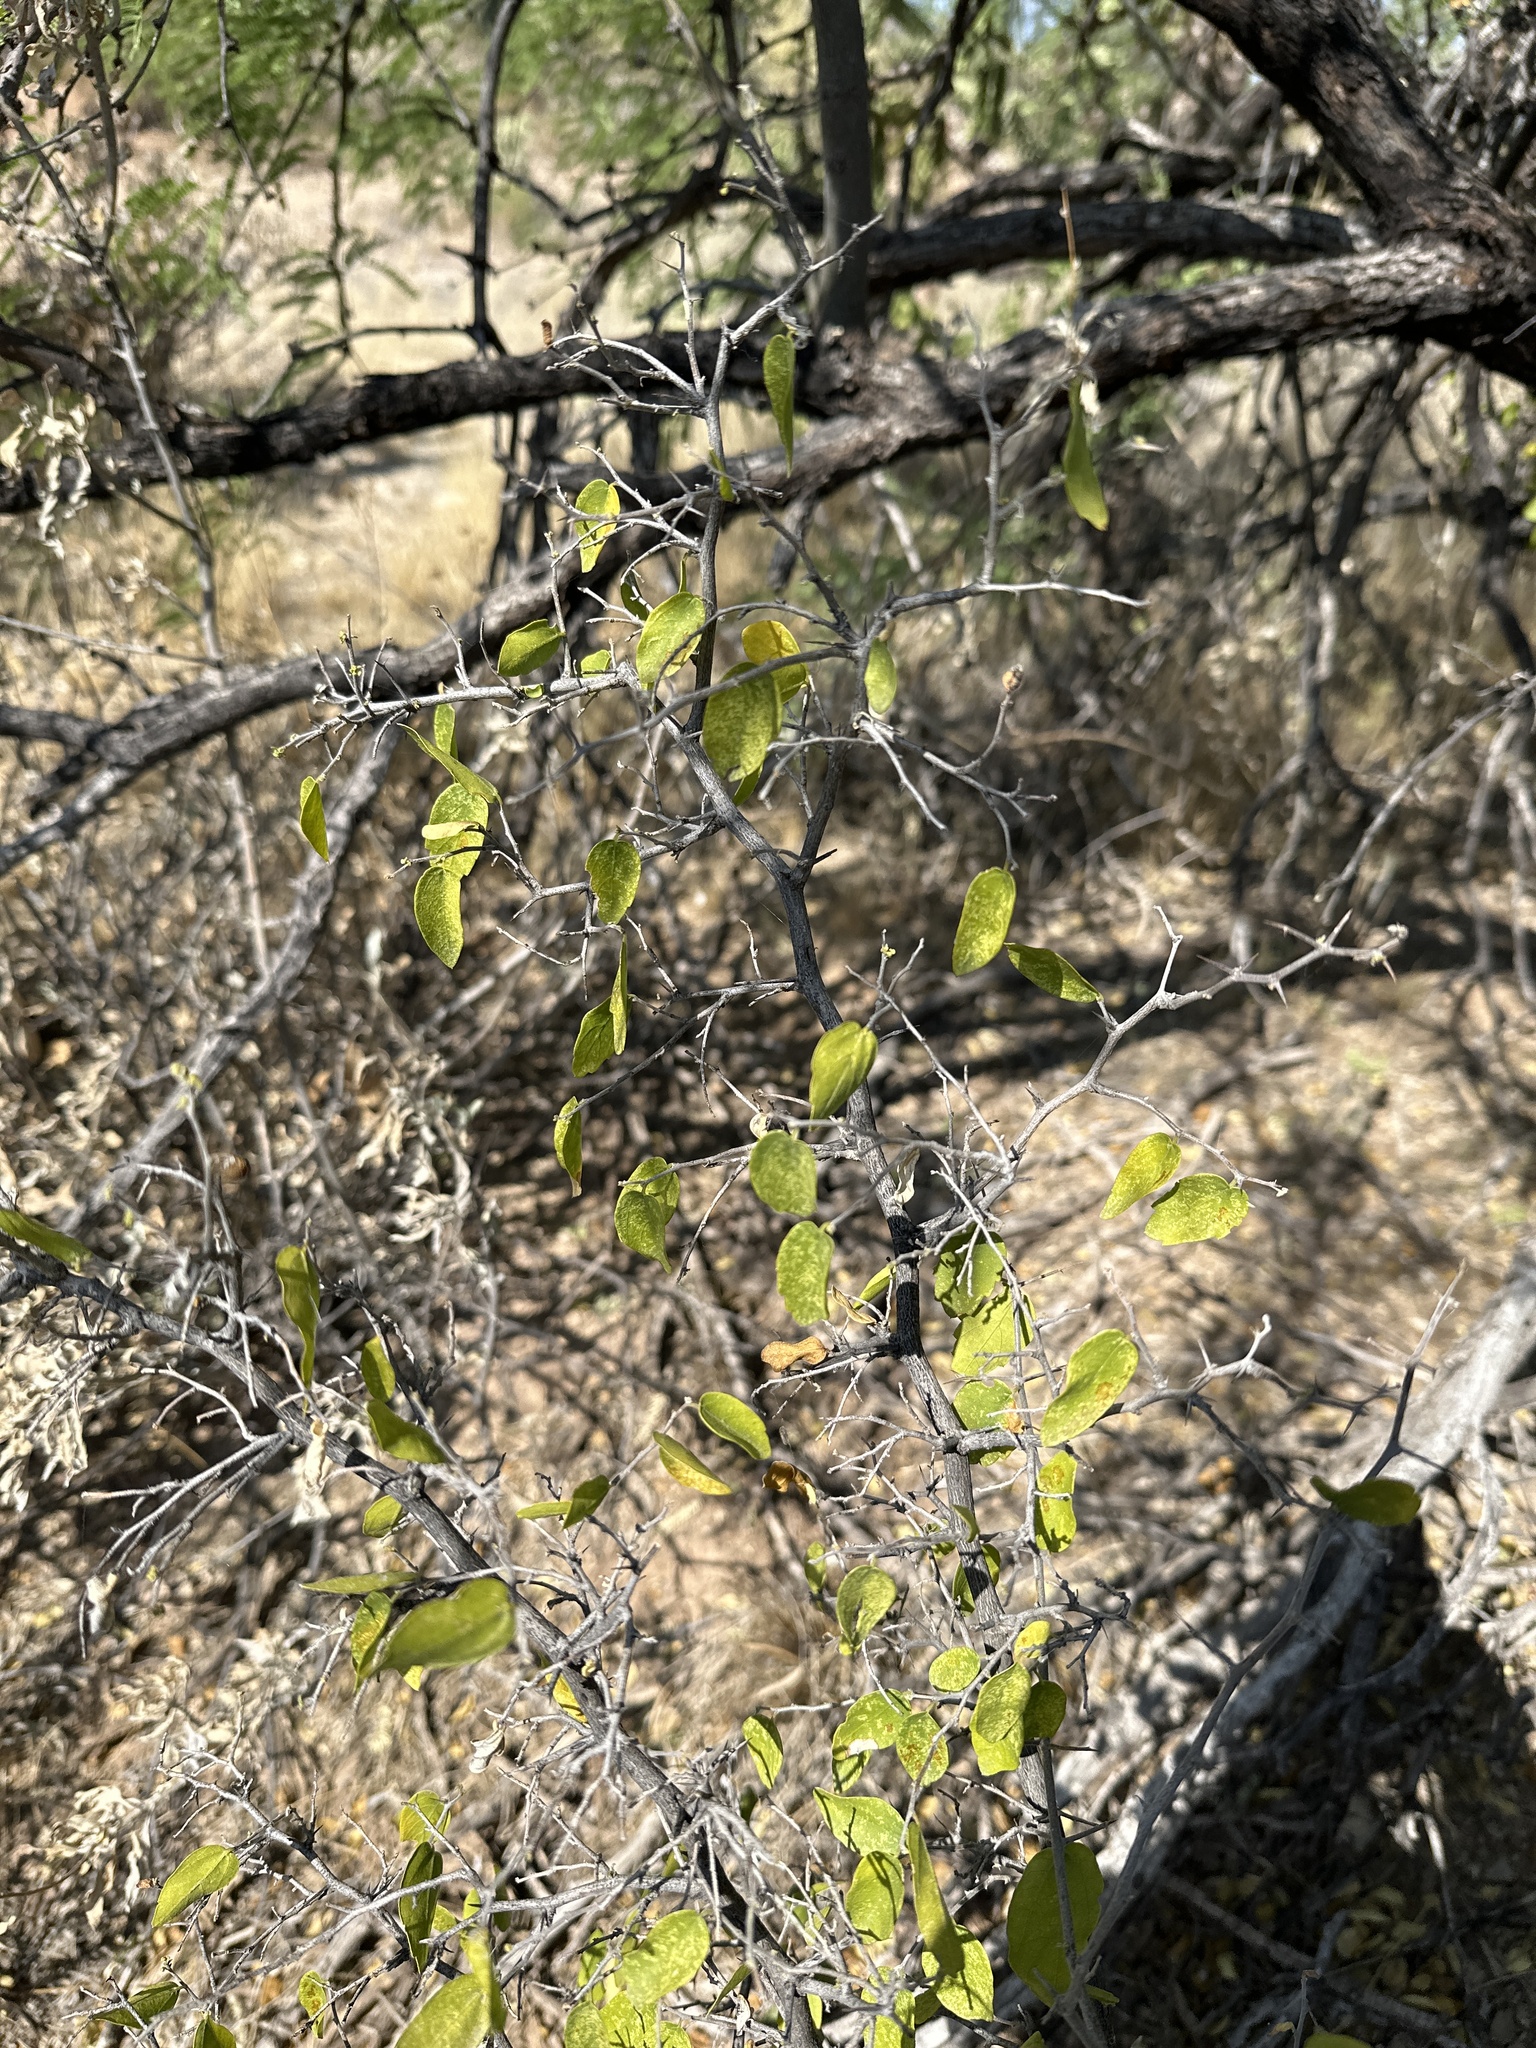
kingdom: Plantae
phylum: Tracheophyta
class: Magnoliopsida
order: Rosales
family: Cannabaceae
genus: Celtis
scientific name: Celtis pallida
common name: Desert hackberry
